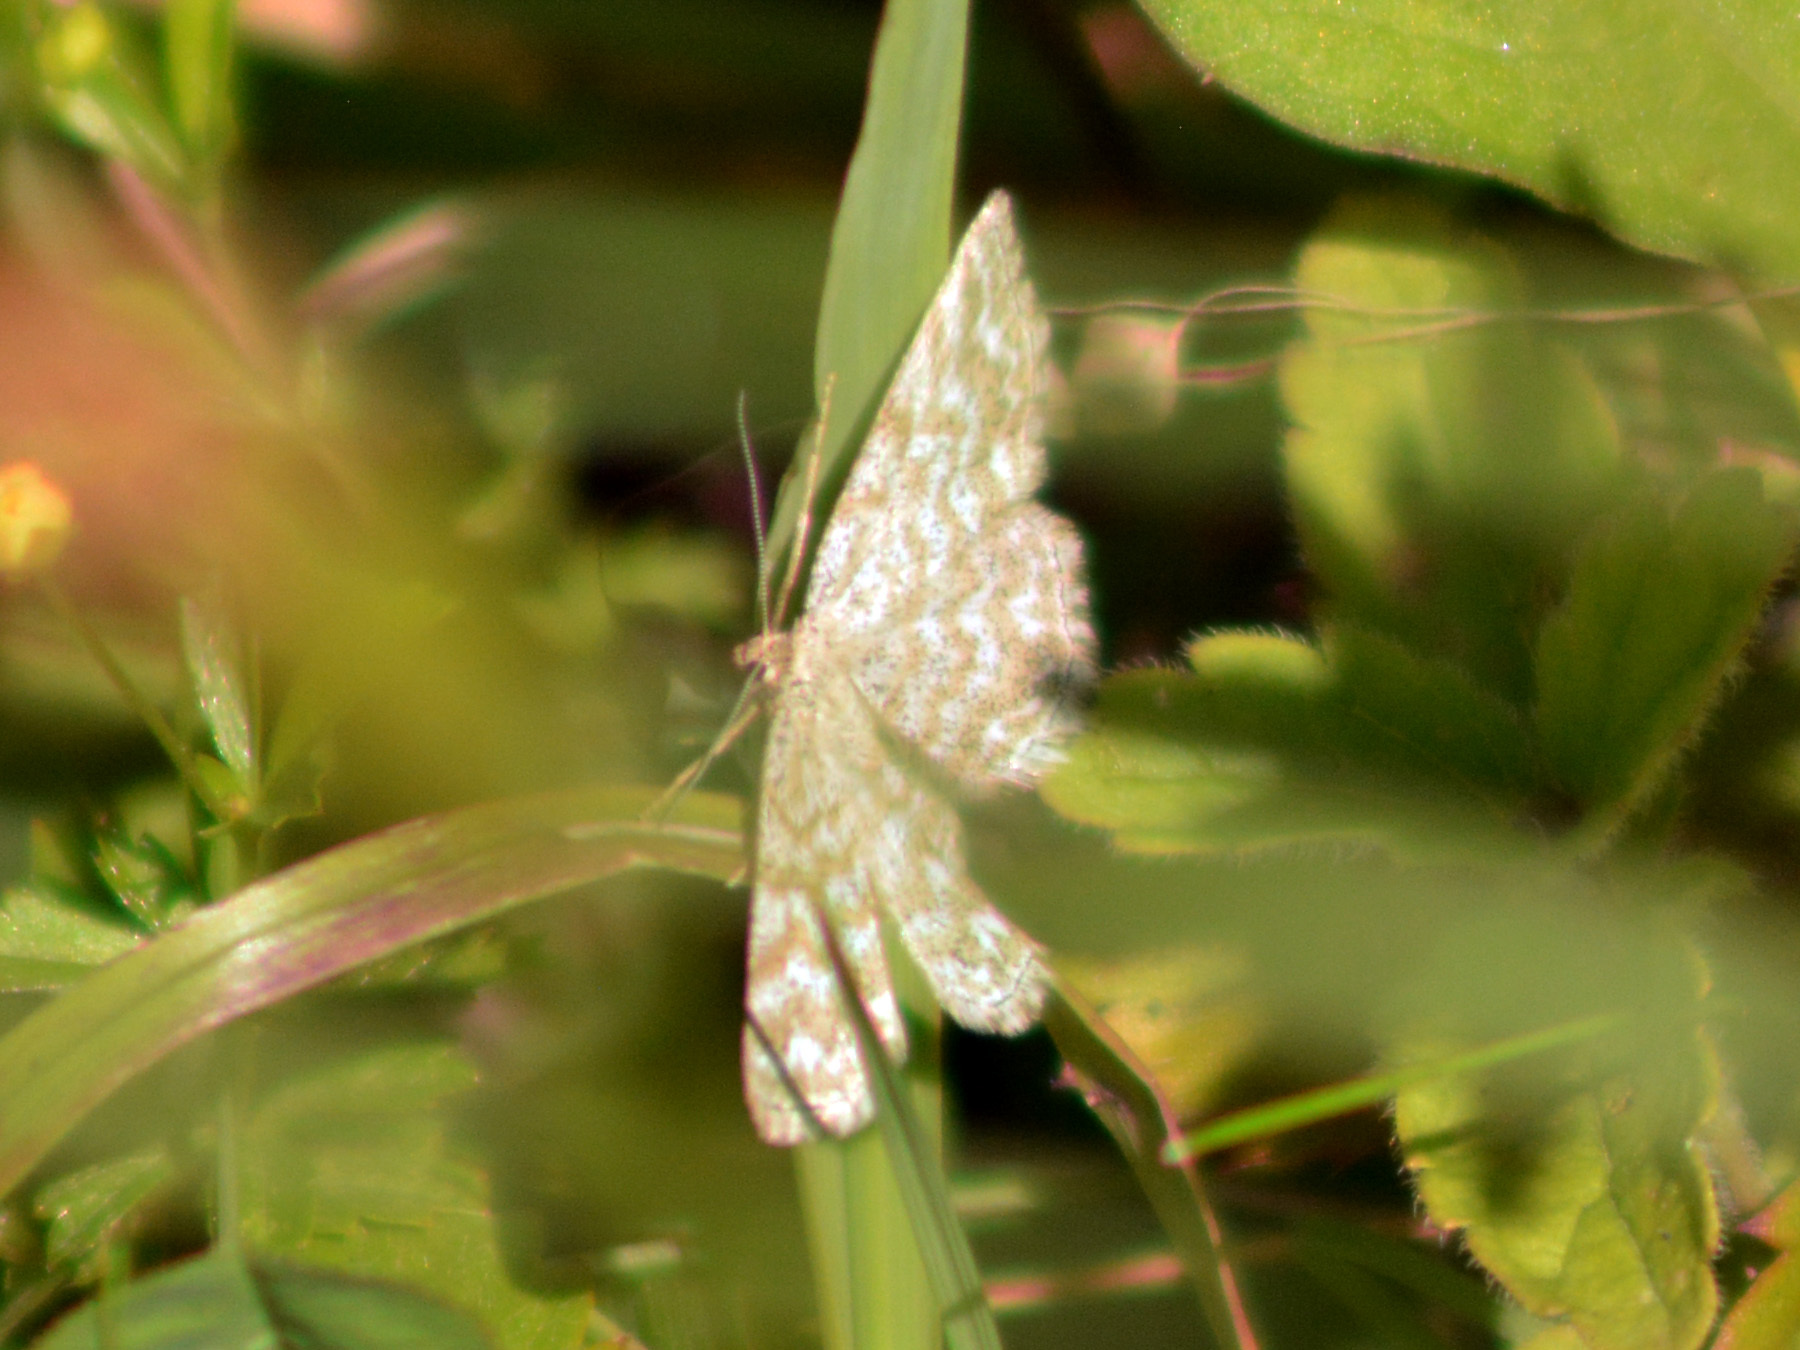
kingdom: Animalia
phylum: Arthropoda
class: Insecta
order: Lepidoptera
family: Geometridae
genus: Scopula
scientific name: Scopula immorata
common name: Lewes wave
